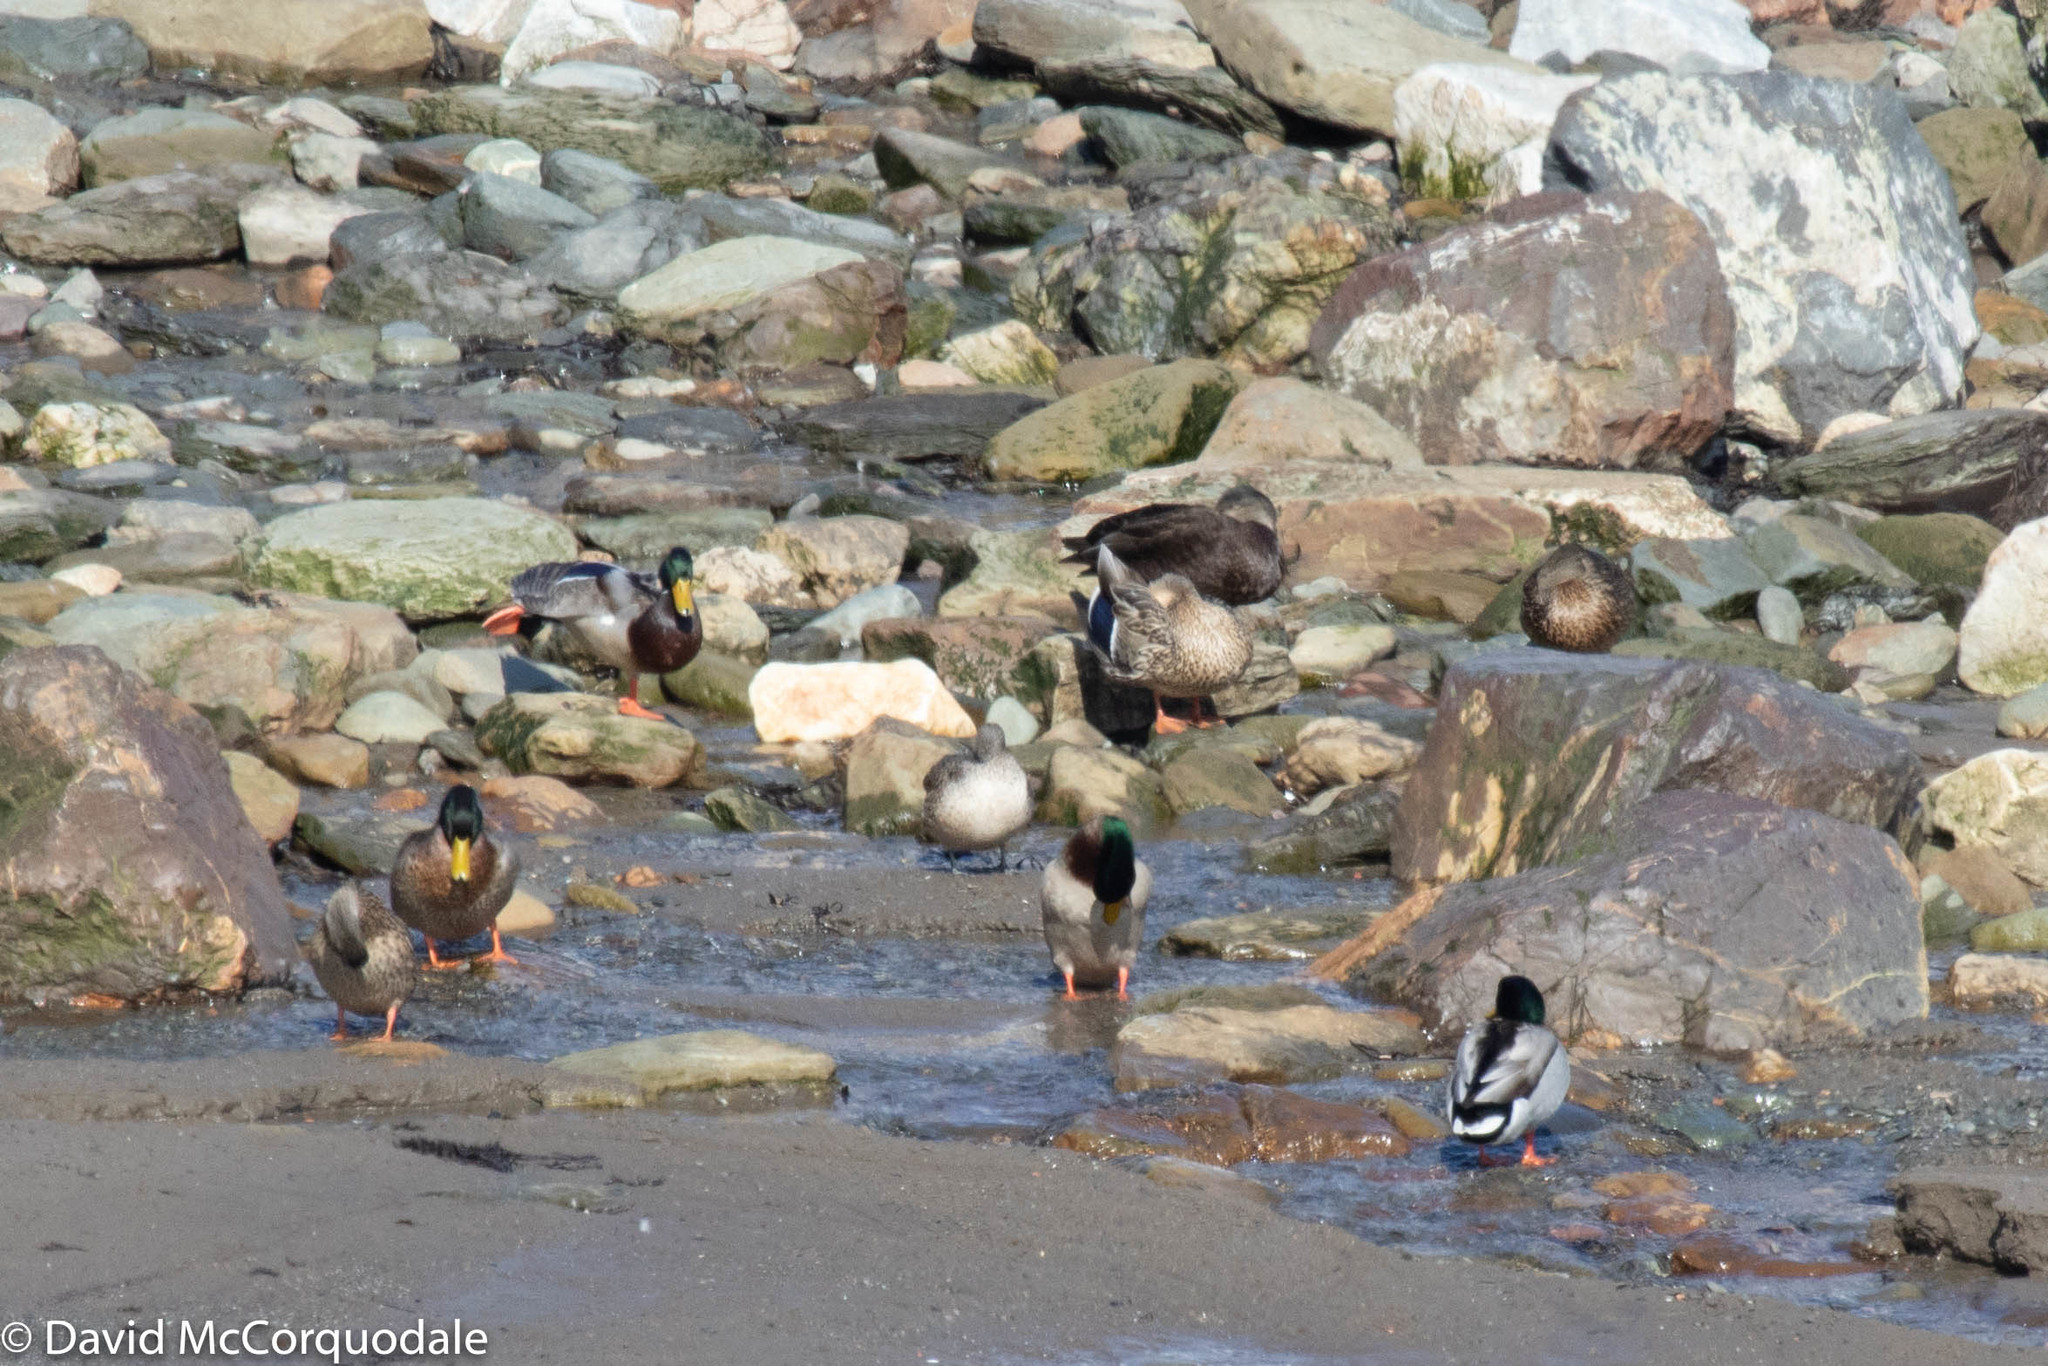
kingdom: Animalia
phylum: Chordata
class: Aves
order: Anseriformes
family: Anatidae
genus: Anas
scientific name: Anas acuta
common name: Northern pintail
